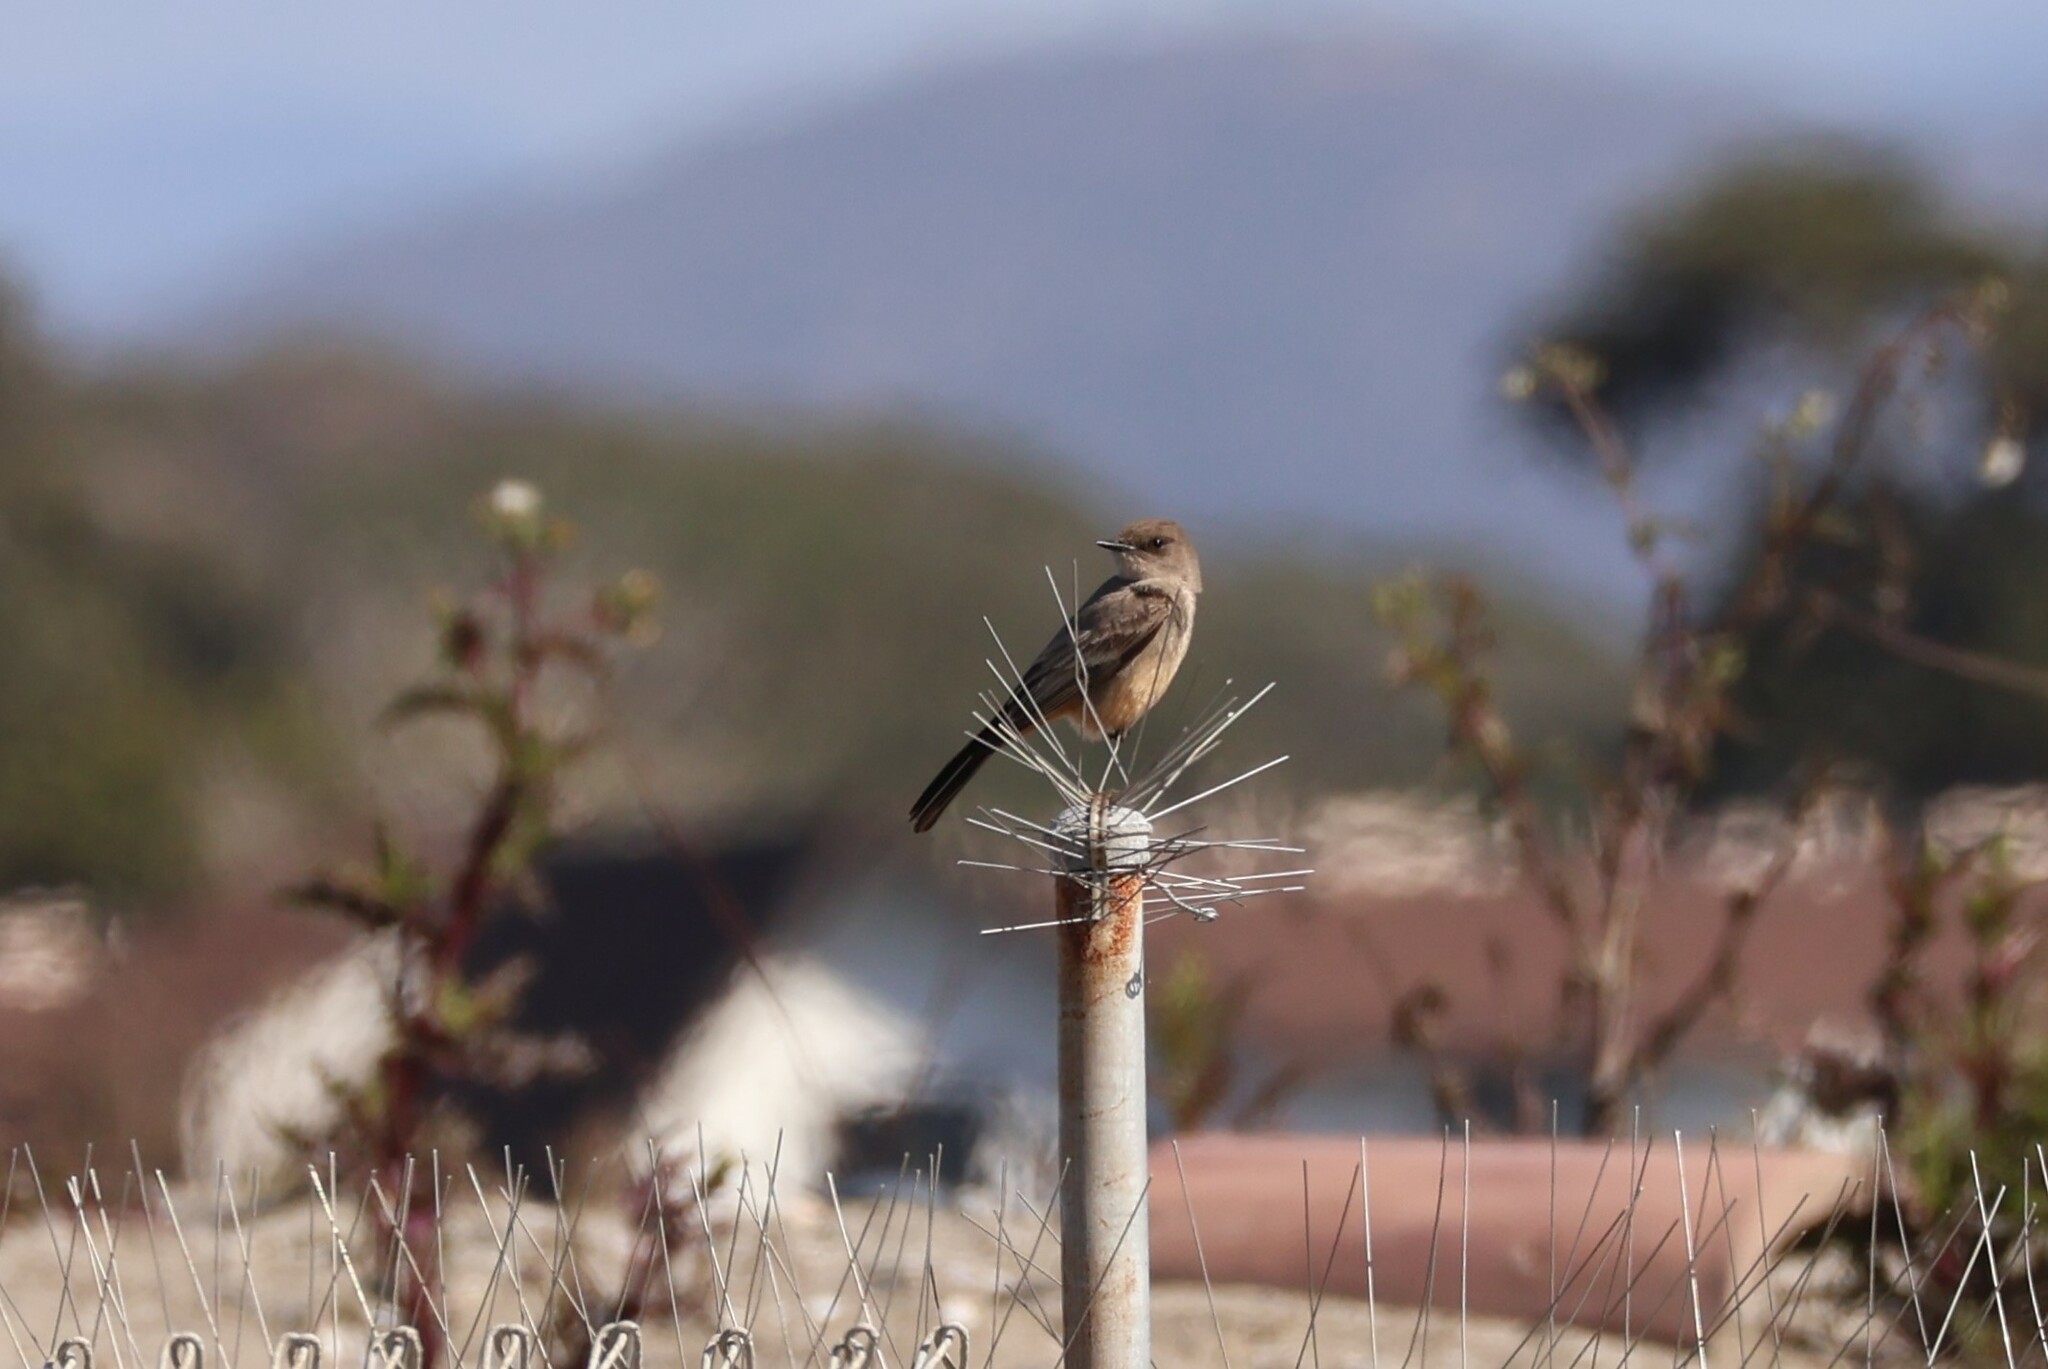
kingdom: Animalia
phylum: Chordata
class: Aves
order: Passeriformes
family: Tyrannidae
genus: Sayornis
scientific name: Sayornis saya
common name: Say's phoebe
